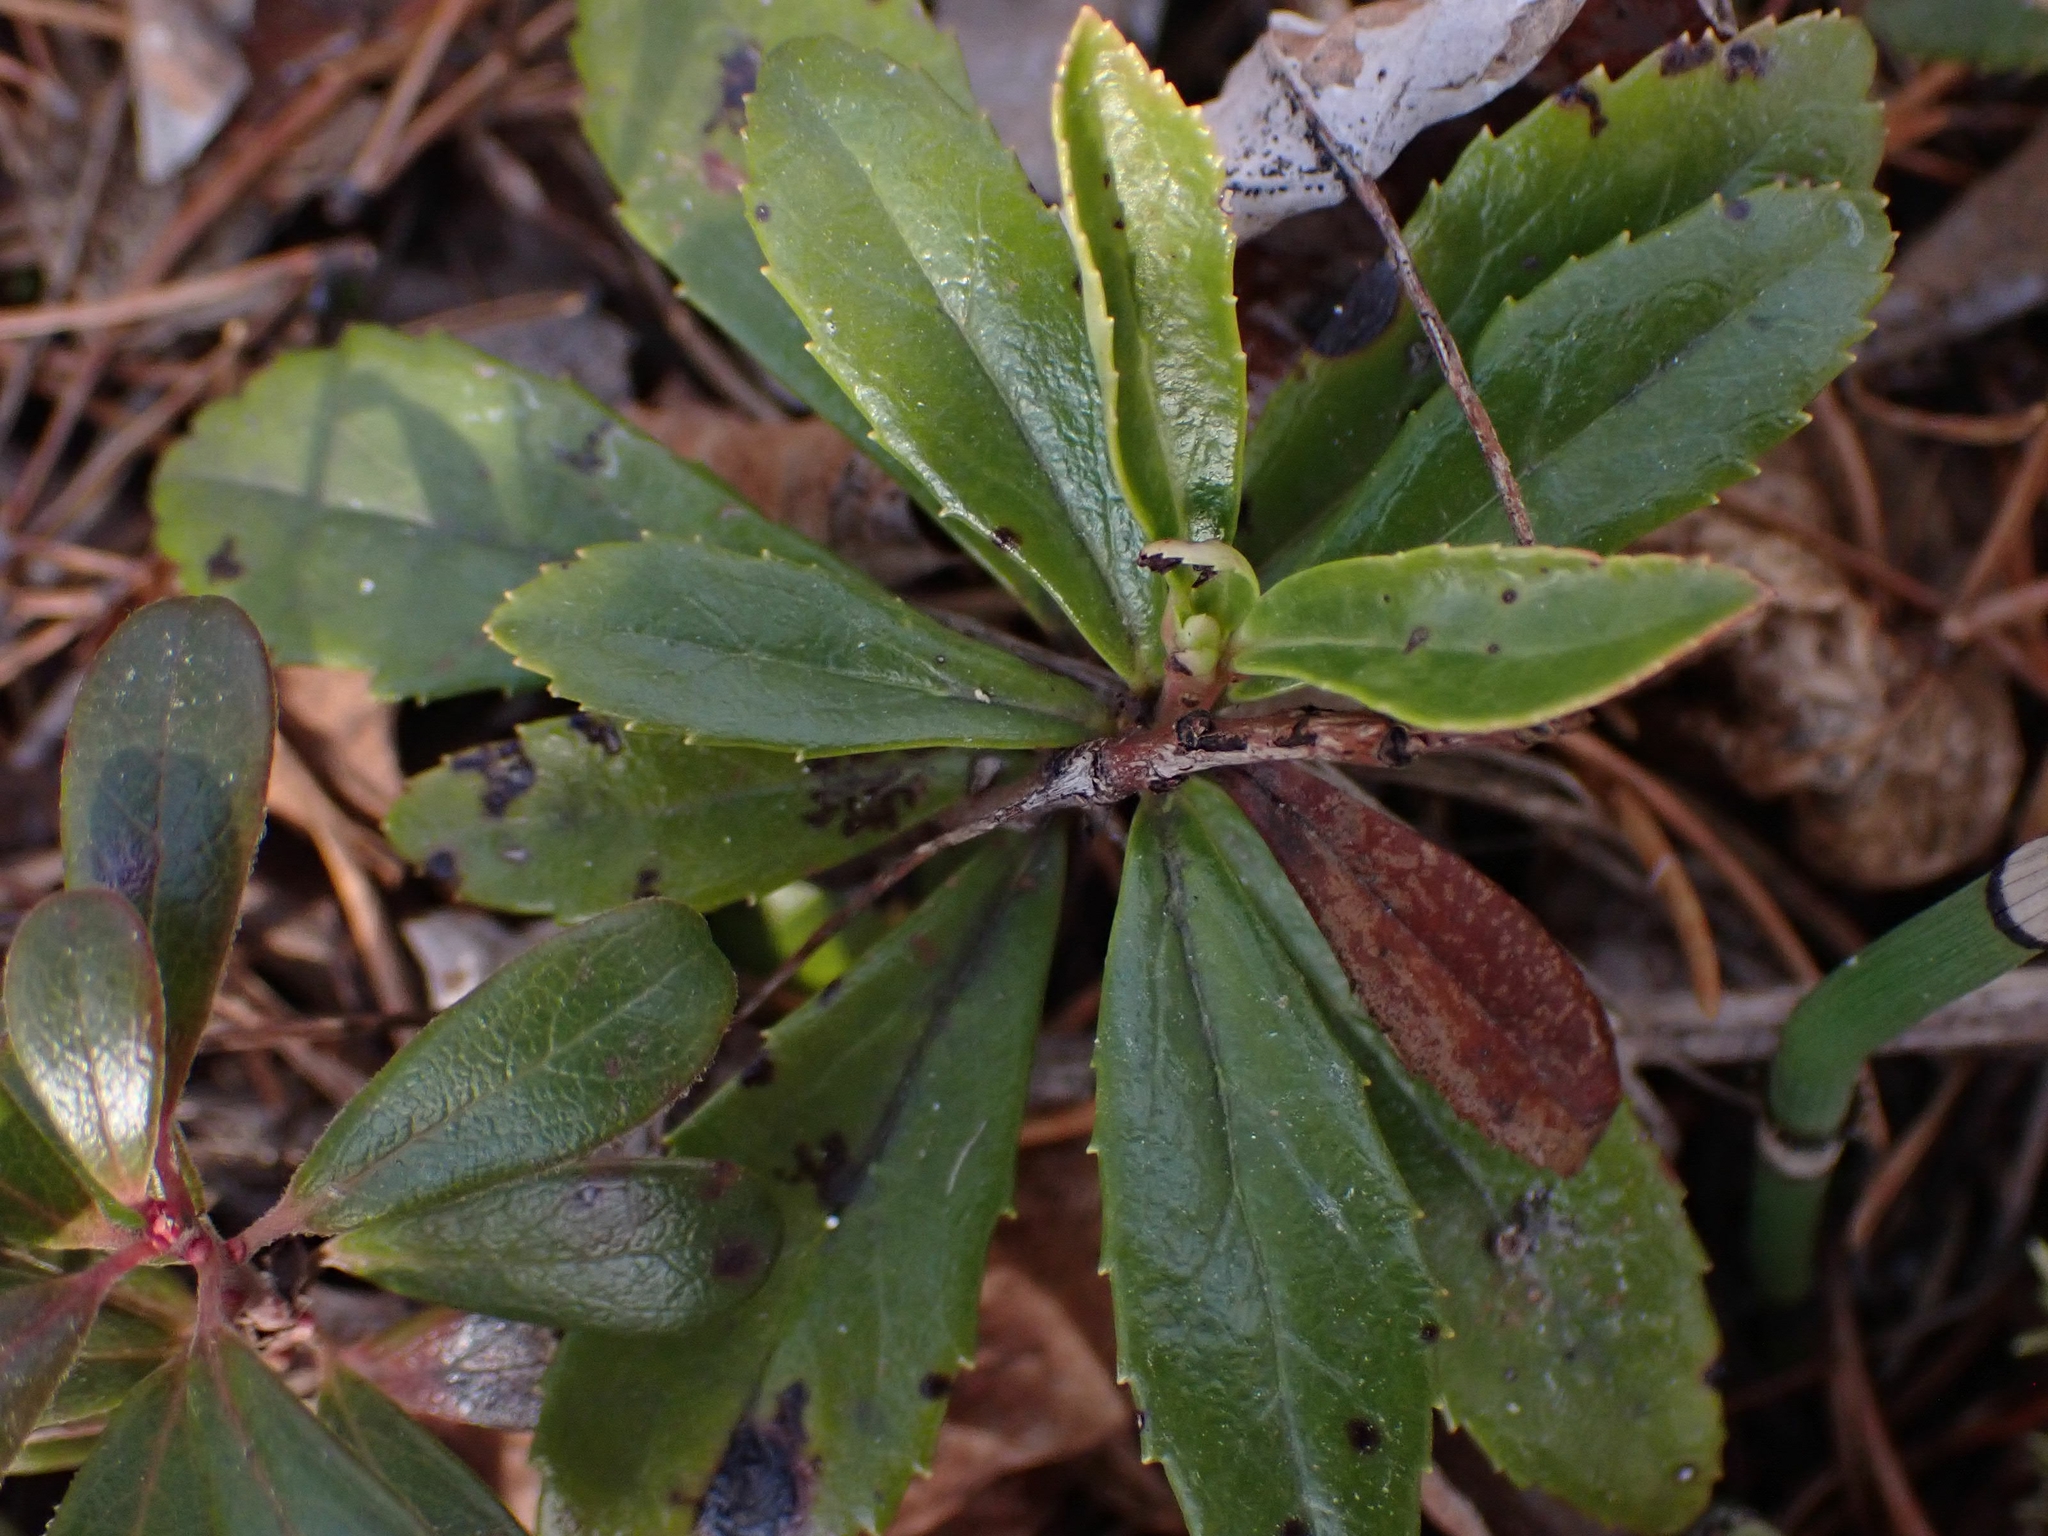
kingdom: Plantae
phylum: Tracheophyta
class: Magnoliopsida
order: Ericales
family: Ericaceae
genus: Chimaphila
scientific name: Chimaphila umbellata
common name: Pipsissewa
